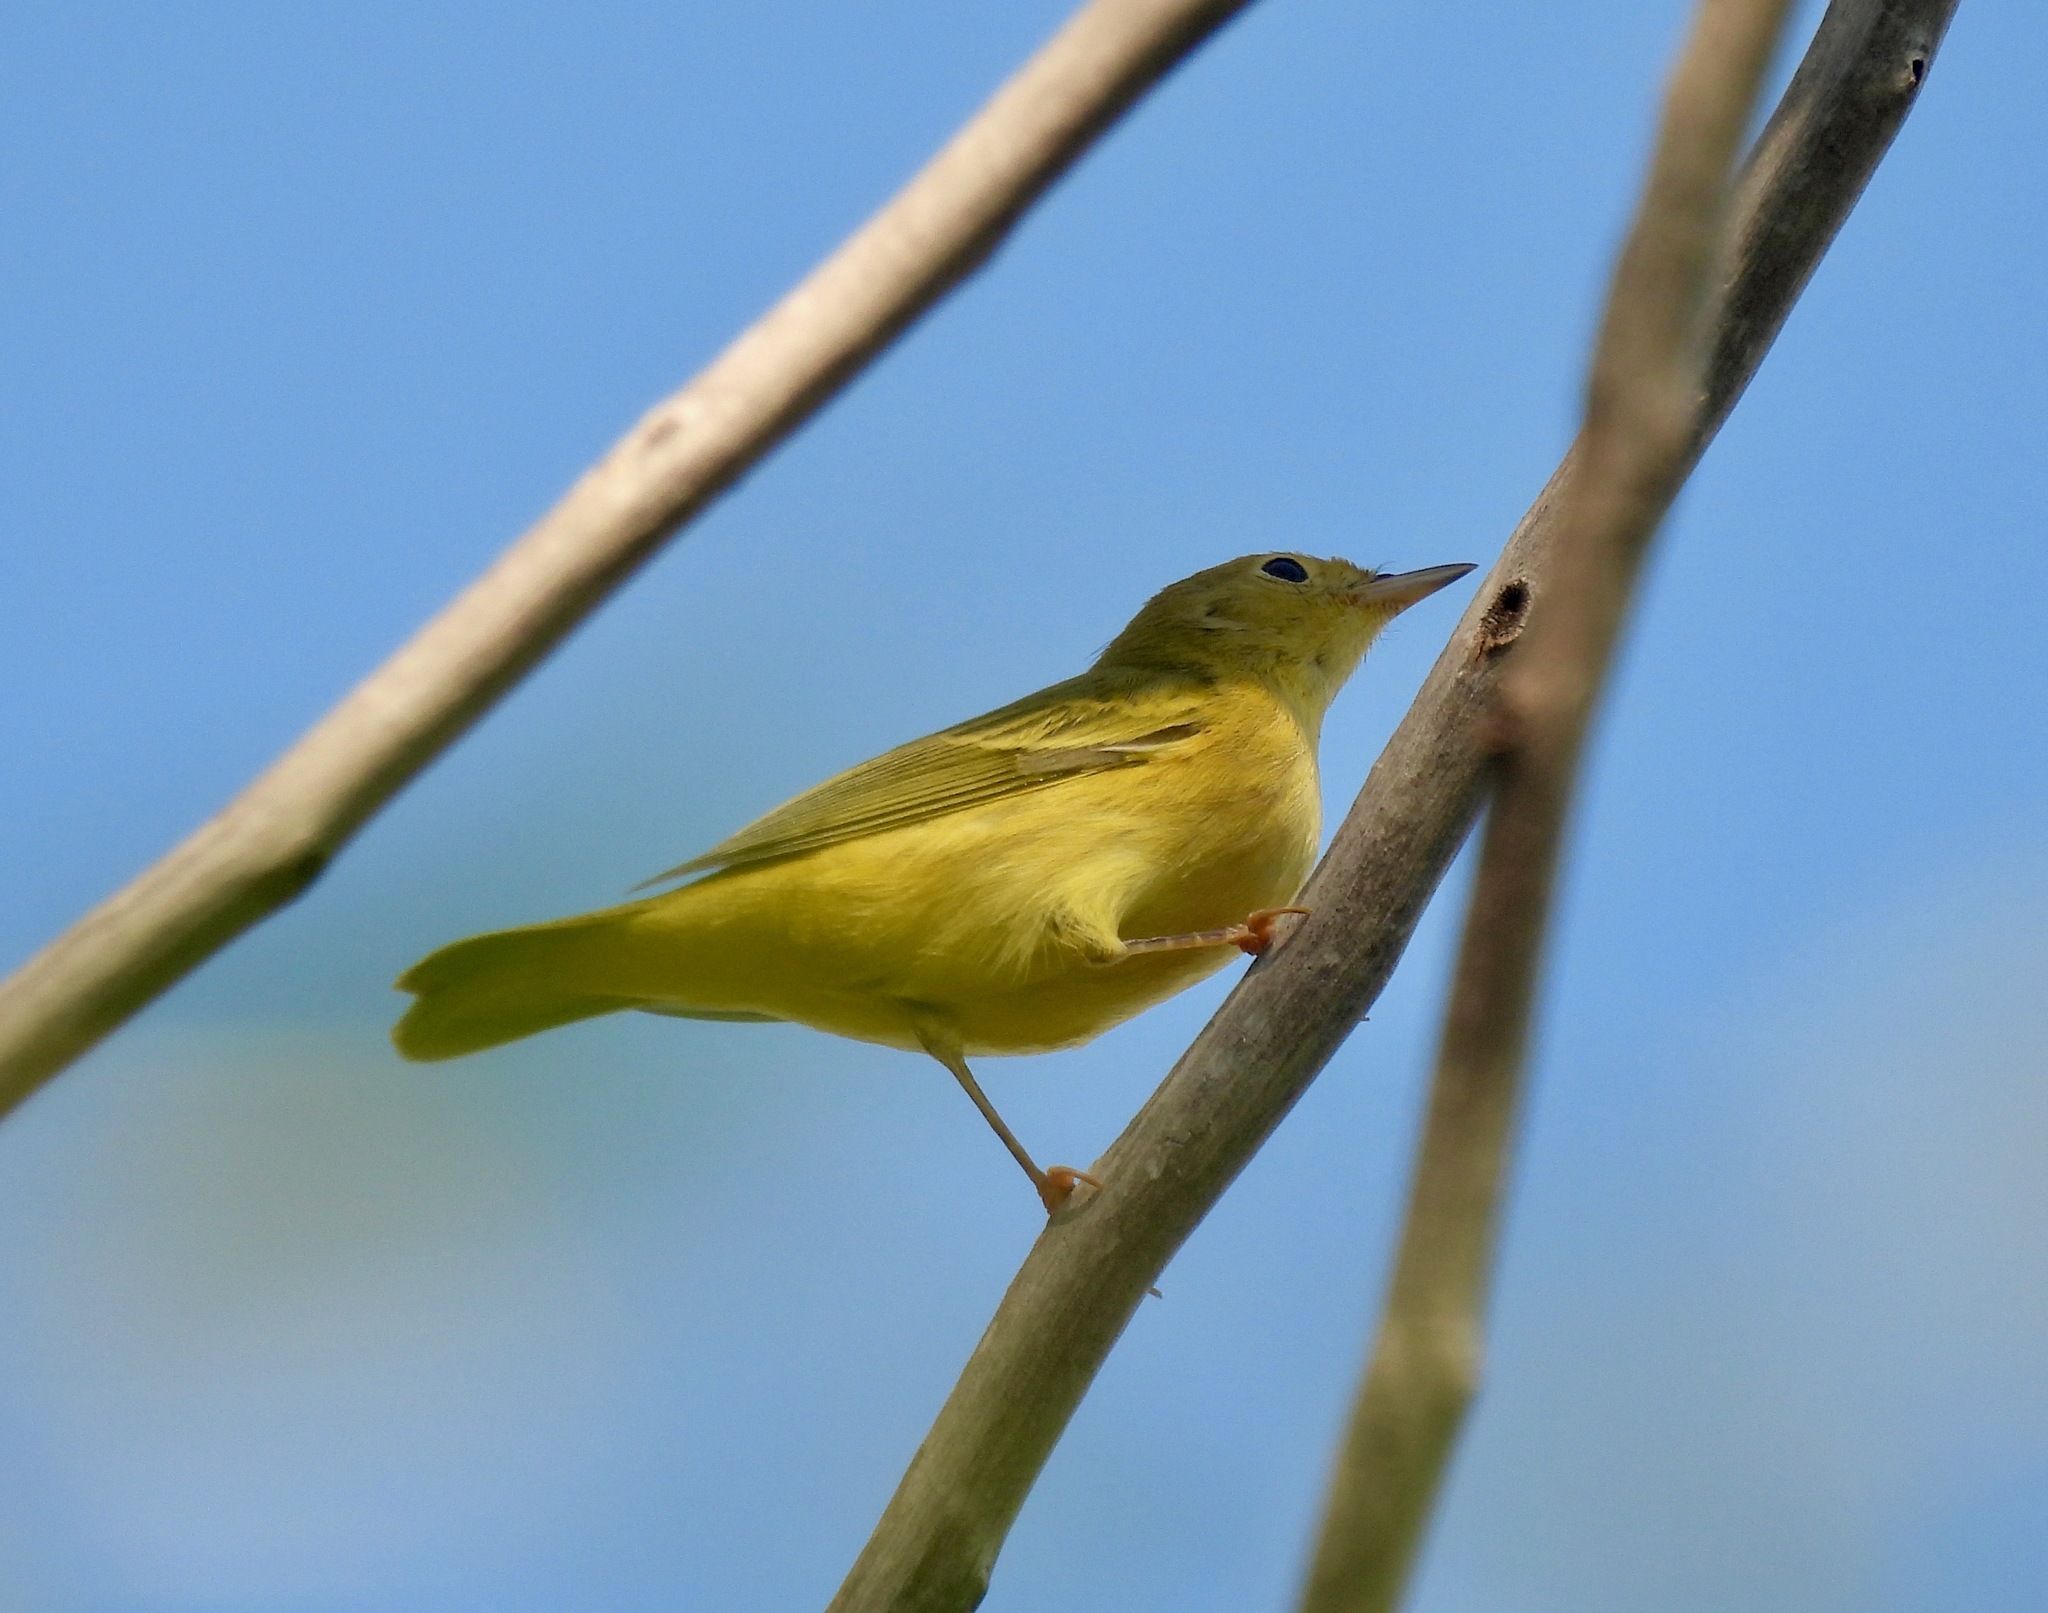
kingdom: Animalia
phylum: Chordata
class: Aves
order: Passeriformes
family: Parulidae
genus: Setophaga
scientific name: Setophaga petechia
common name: Yellow warbler
